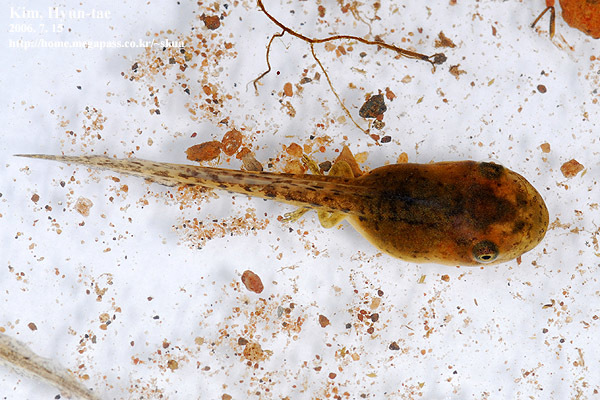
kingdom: Animalia
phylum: Chordata
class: Amphibia
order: Anura
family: Hylidae
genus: Dryophytes
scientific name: Dryophytes japonicus
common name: Japanese treefrog
